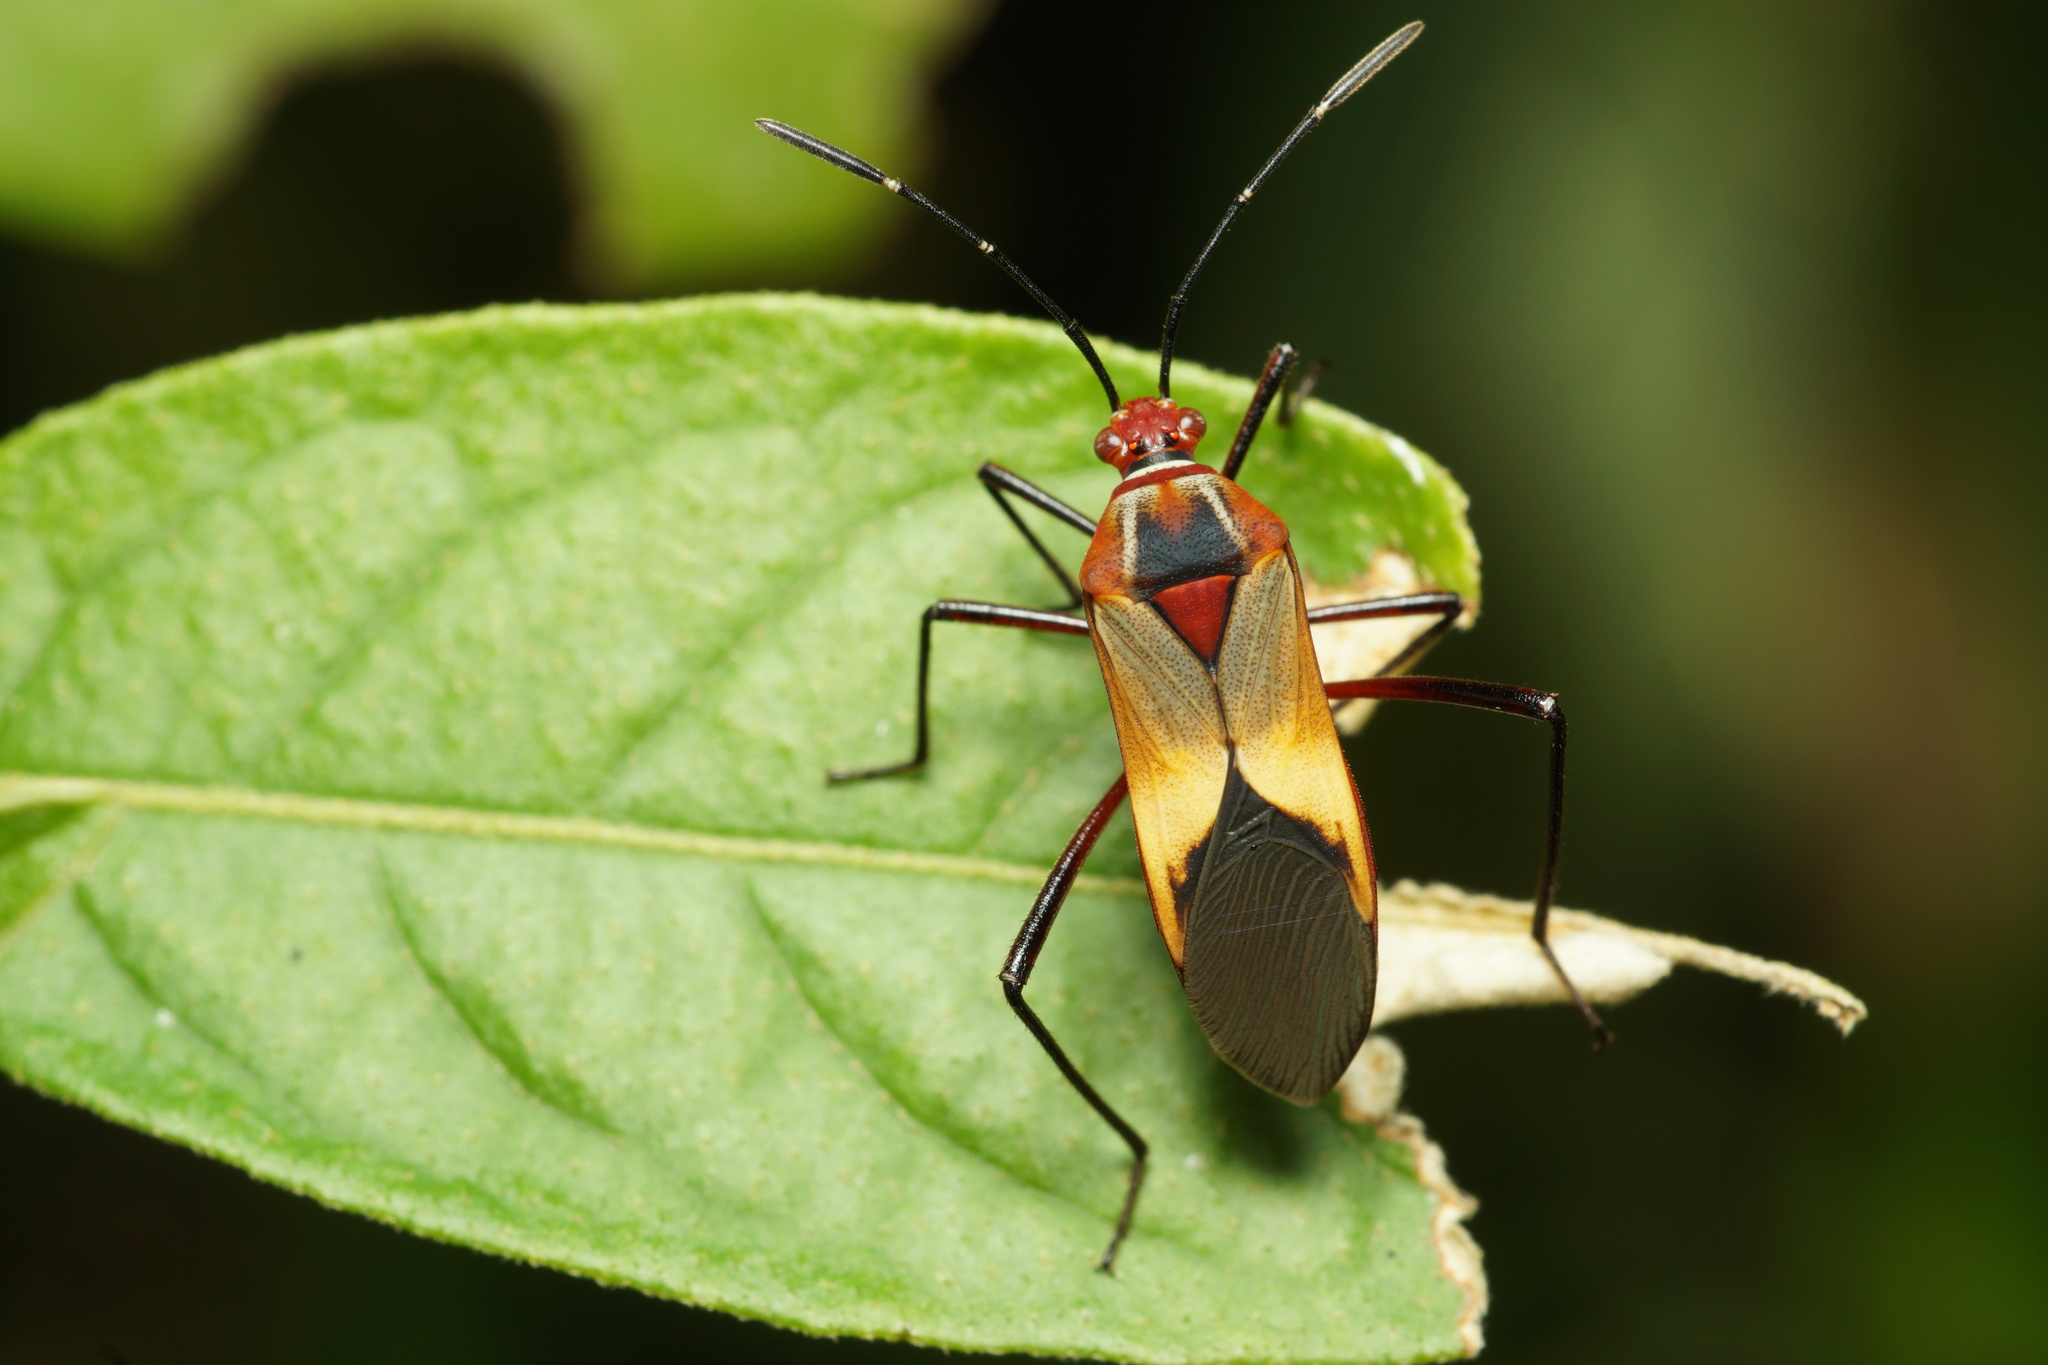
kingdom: Animalia
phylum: Arthropoda
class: Insecta
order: Hemiptera
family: Coreidae
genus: Hypselonotus
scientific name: Hypselonotus interruptus
